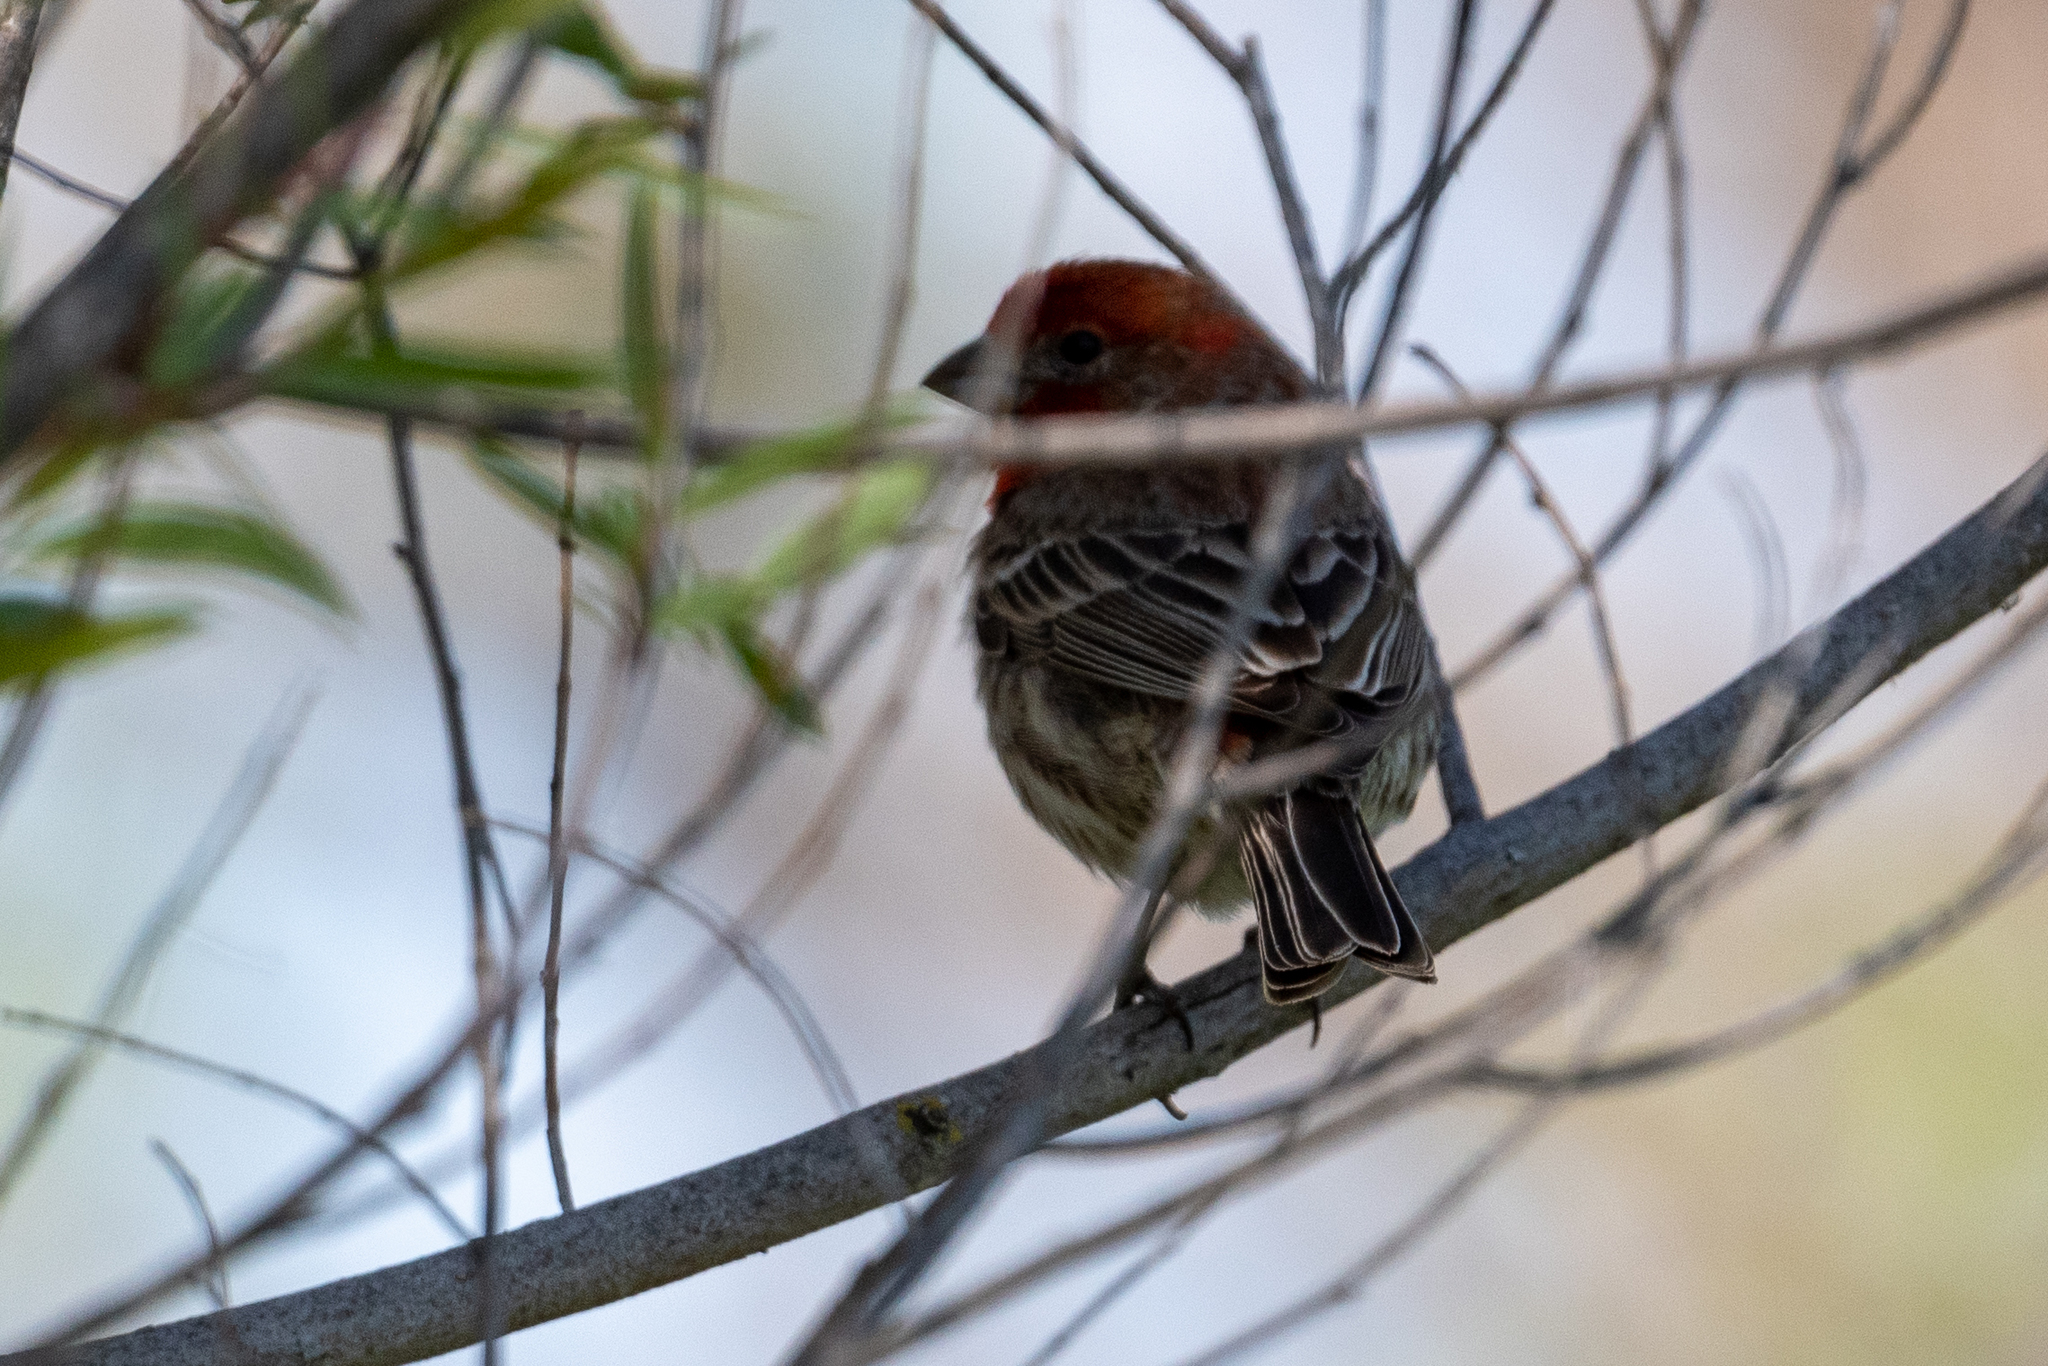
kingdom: Animalia
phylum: Chordata
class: Aves
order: Passeriformes
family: Fringillidae
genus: Haemorhous
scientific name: Haemorhous mexicanus
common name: House finch
